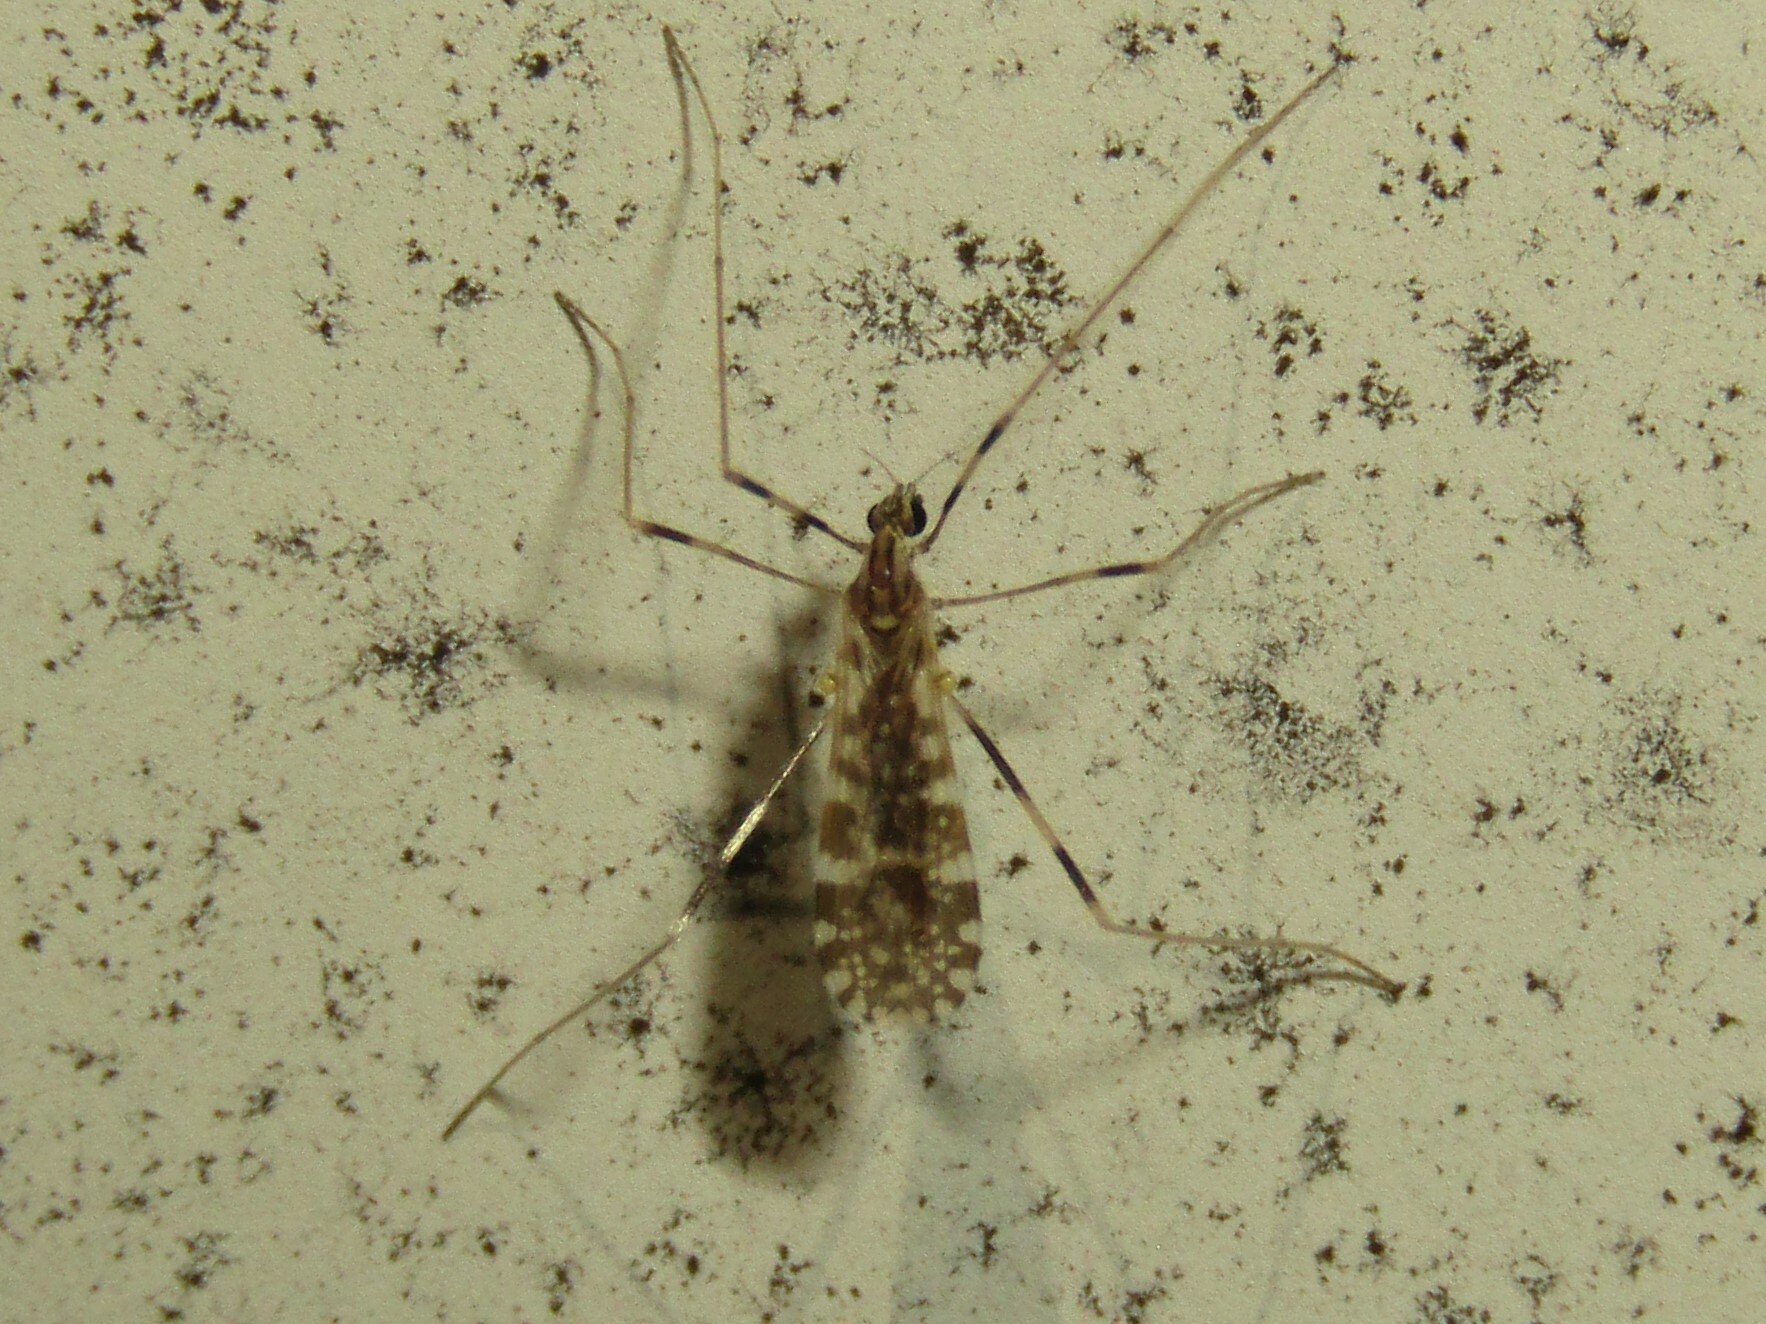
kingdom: Animalia
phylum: Arthropoda
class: Insecta
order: Diptera
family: Limoniidae
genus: Erioptera
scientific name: Erioptera caliptera
